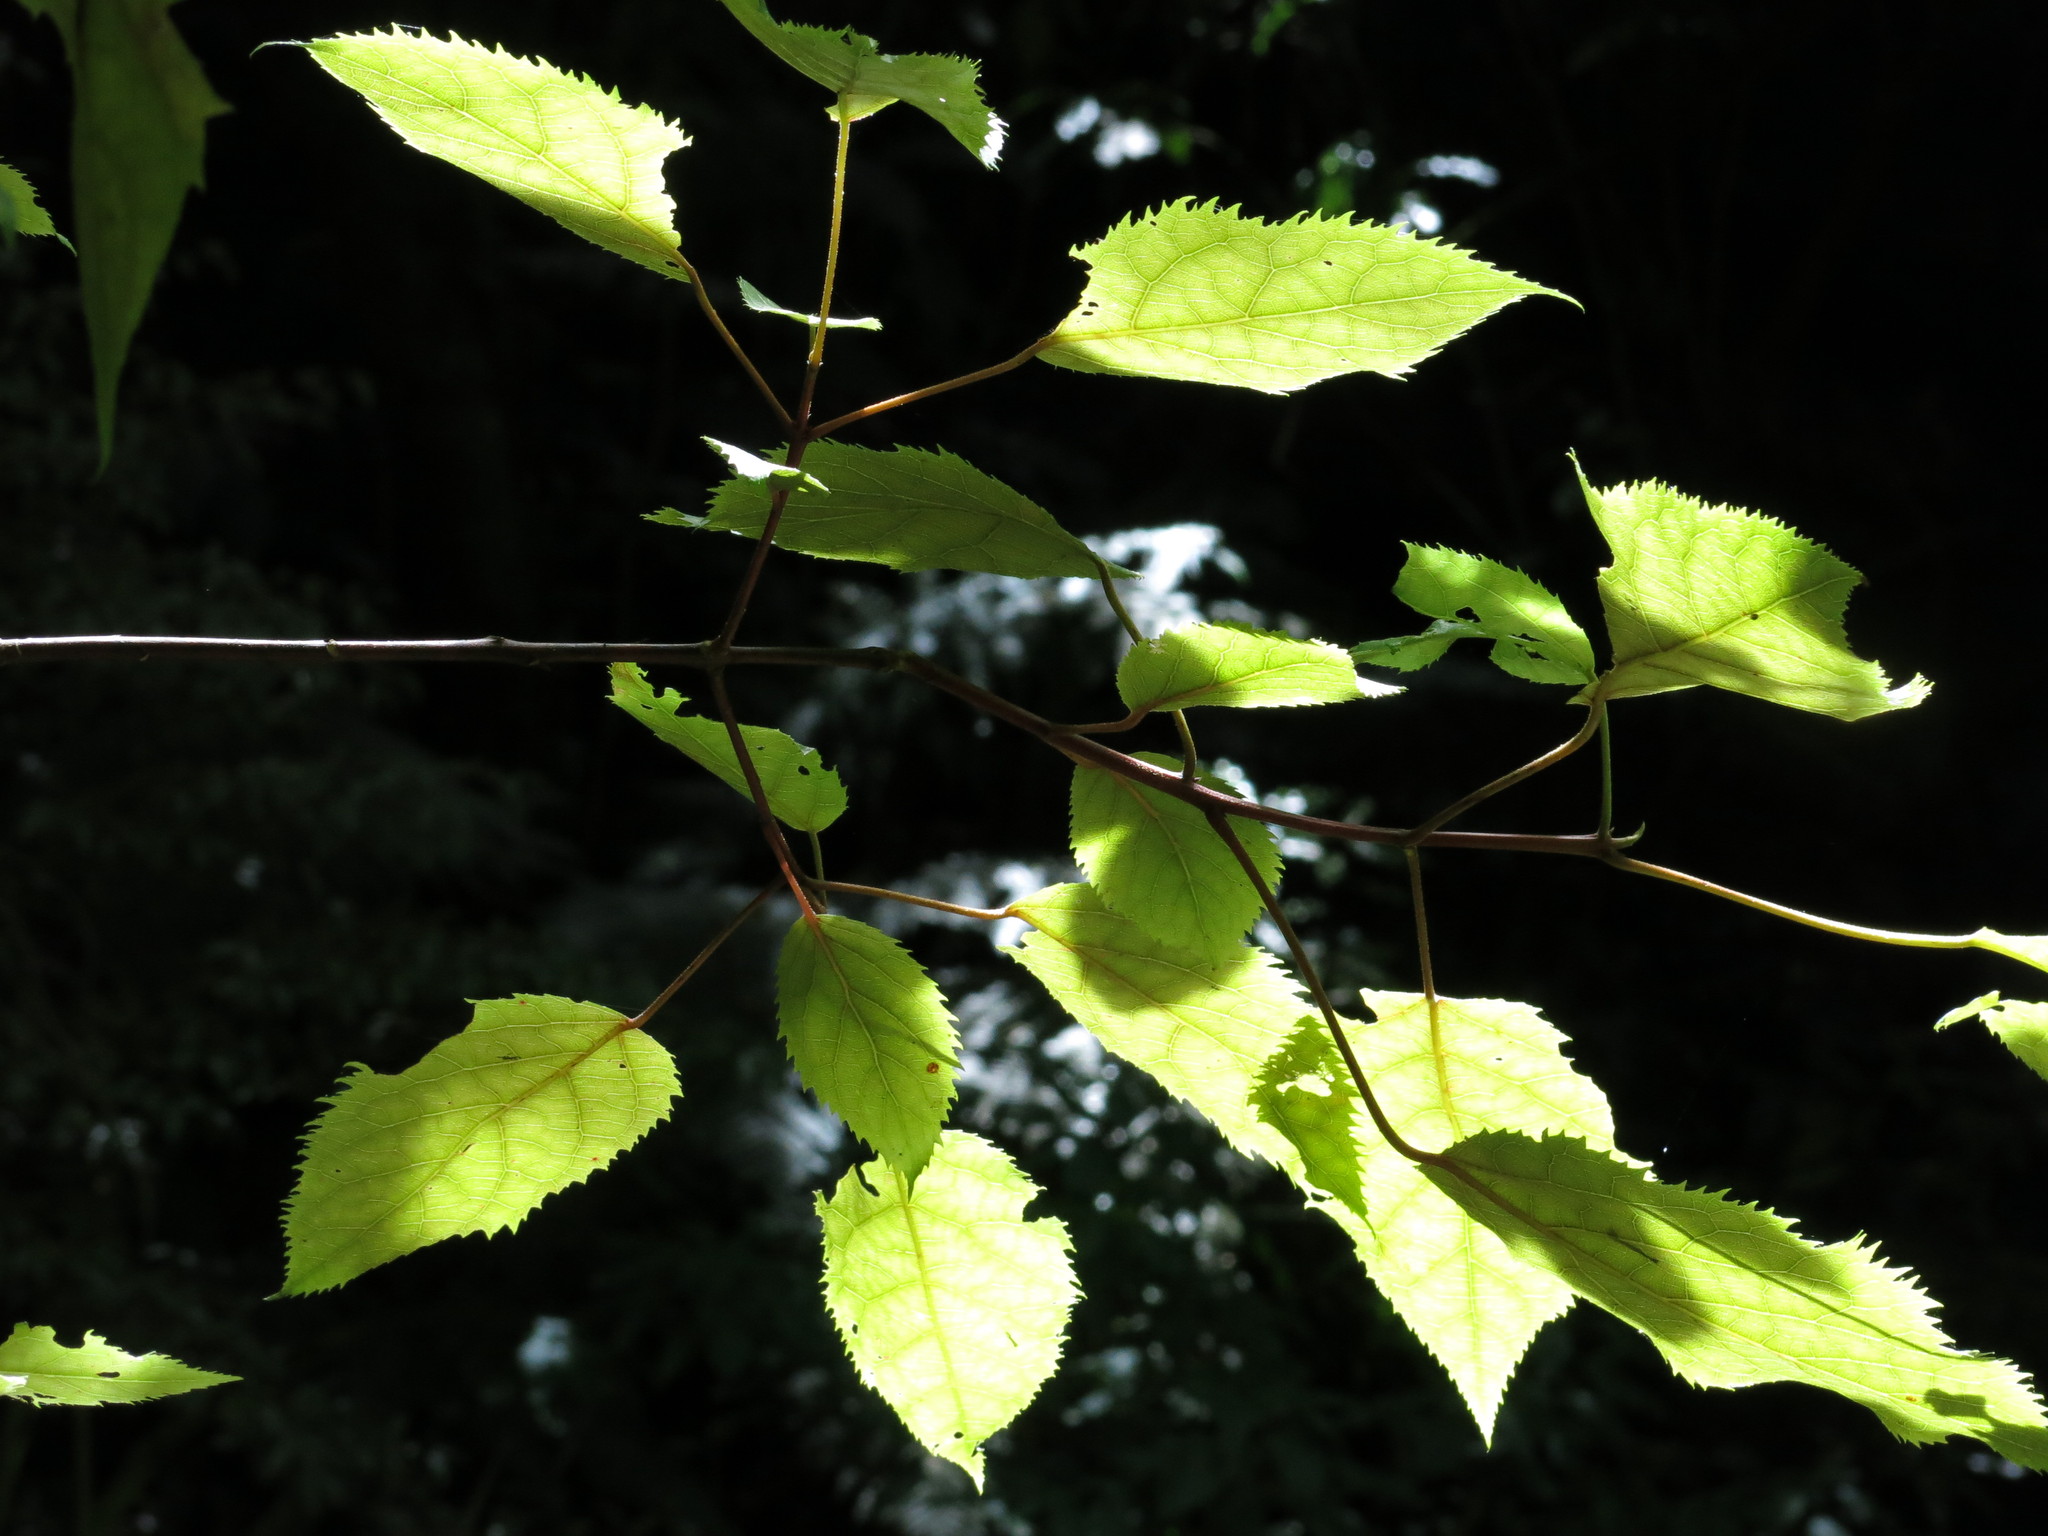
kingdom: Plantae
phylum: Tracheophyta
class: Magnoliopsida
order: Oxalidales
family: Elaeocarpaceae
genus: Aristotelia
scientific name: Aristotelia serrata
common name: New zealand wineberry
